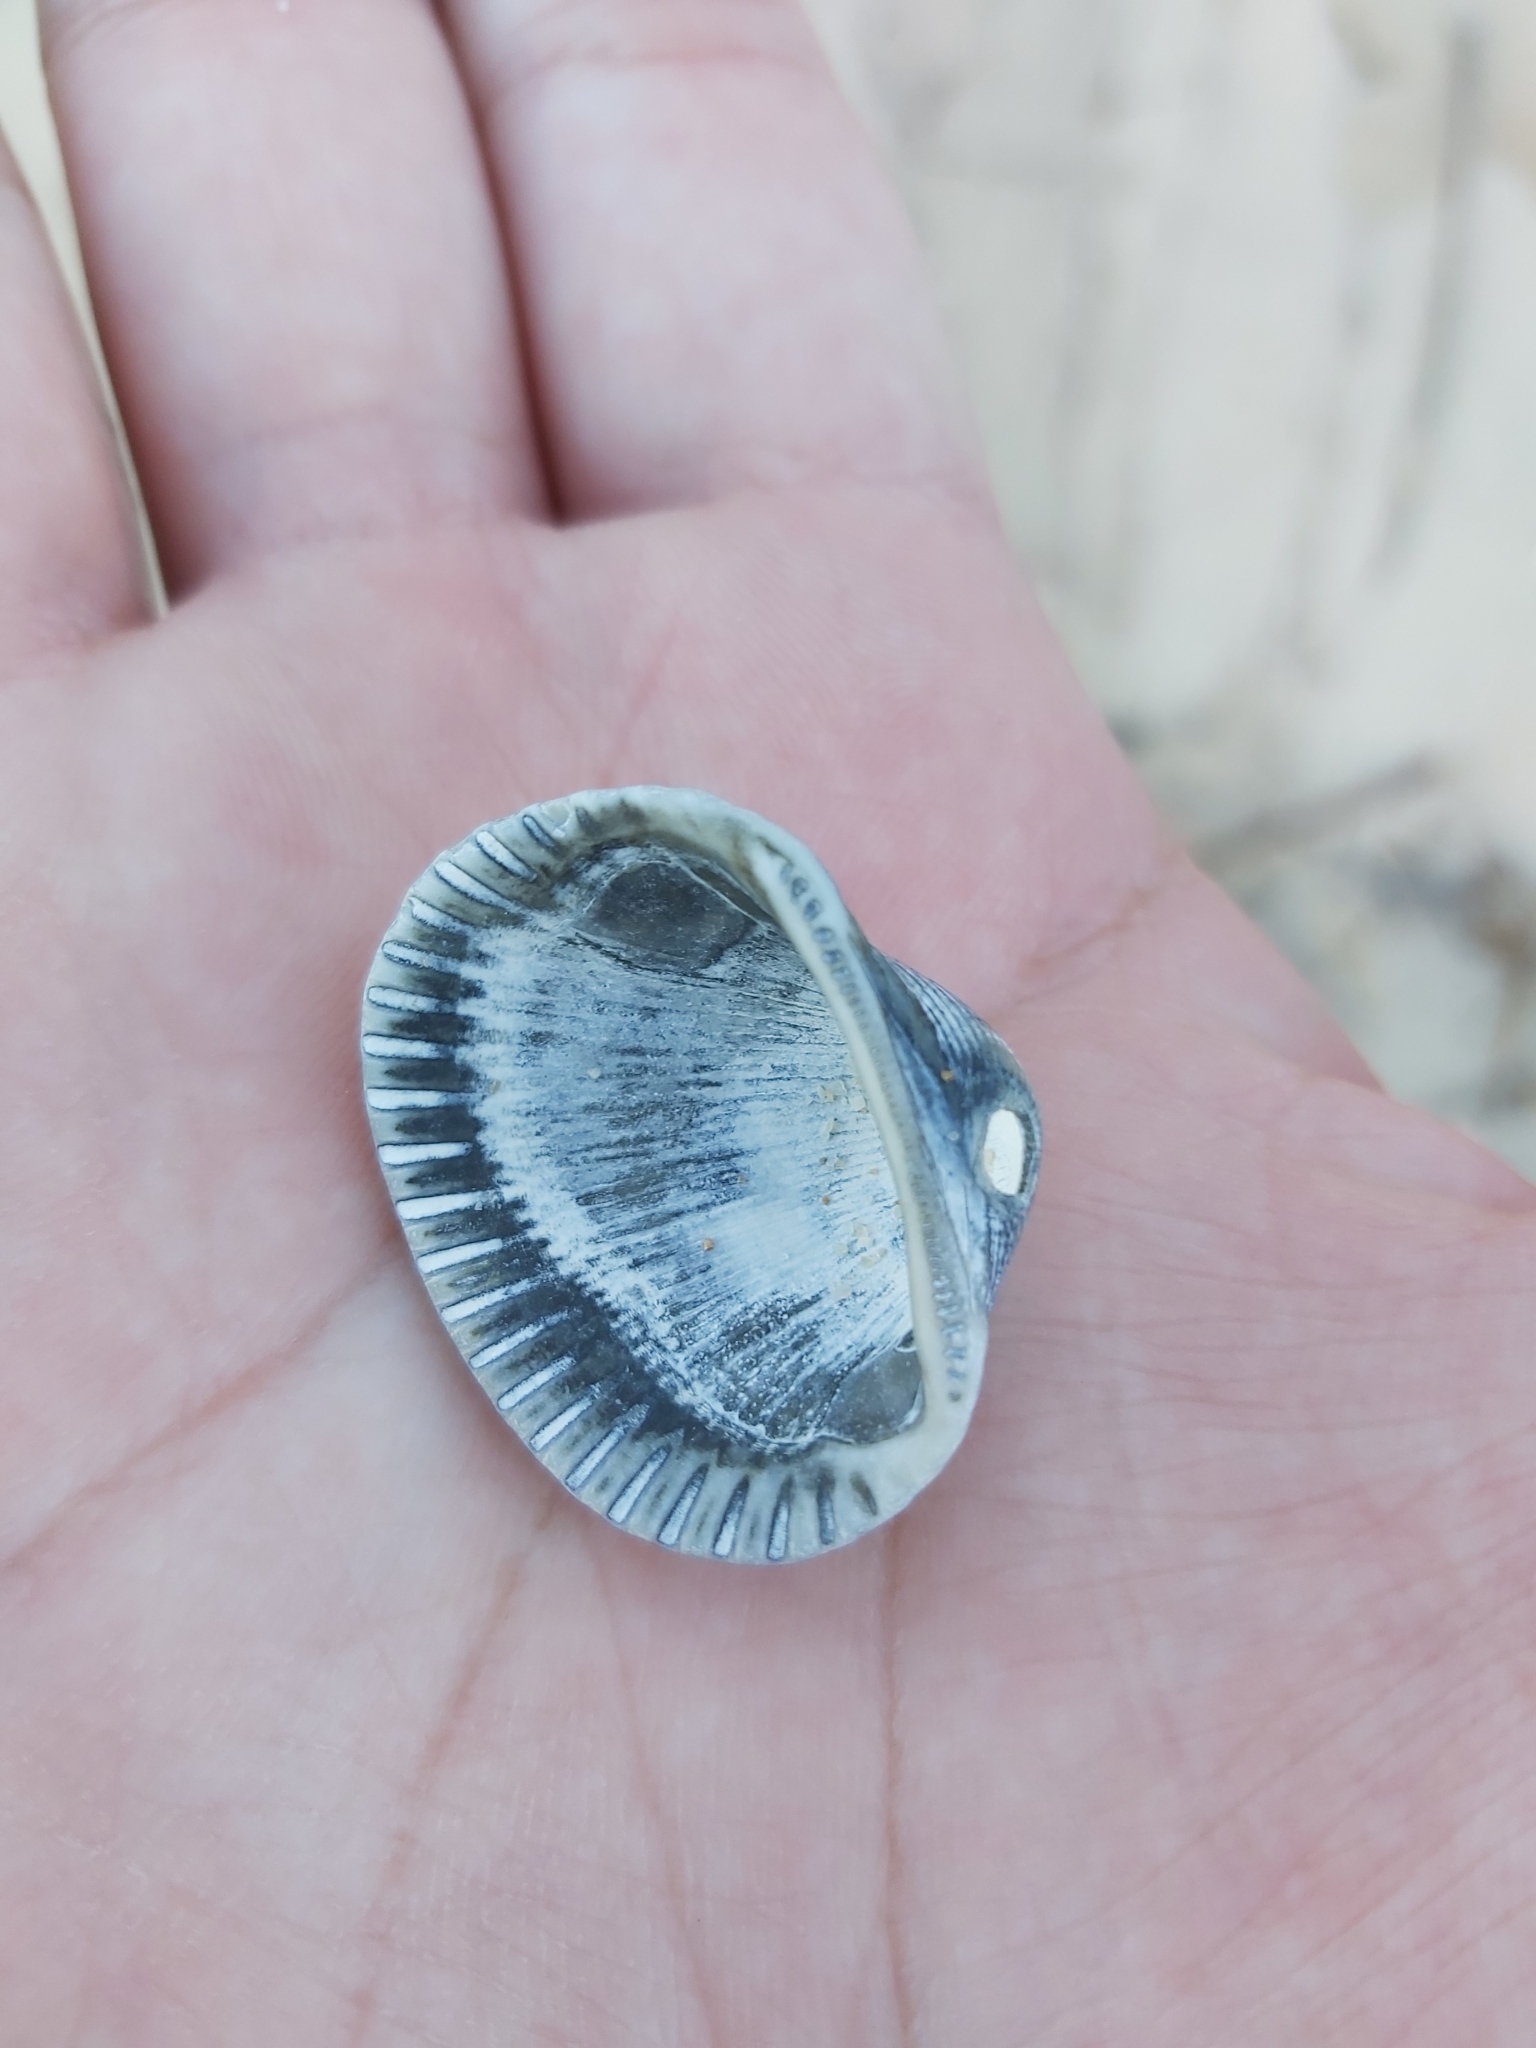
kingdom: Animalia
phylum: Mollusca
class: Bivalvia
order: Arcida
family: Arcidae
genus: Anadara
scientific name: Anadara trapezia
